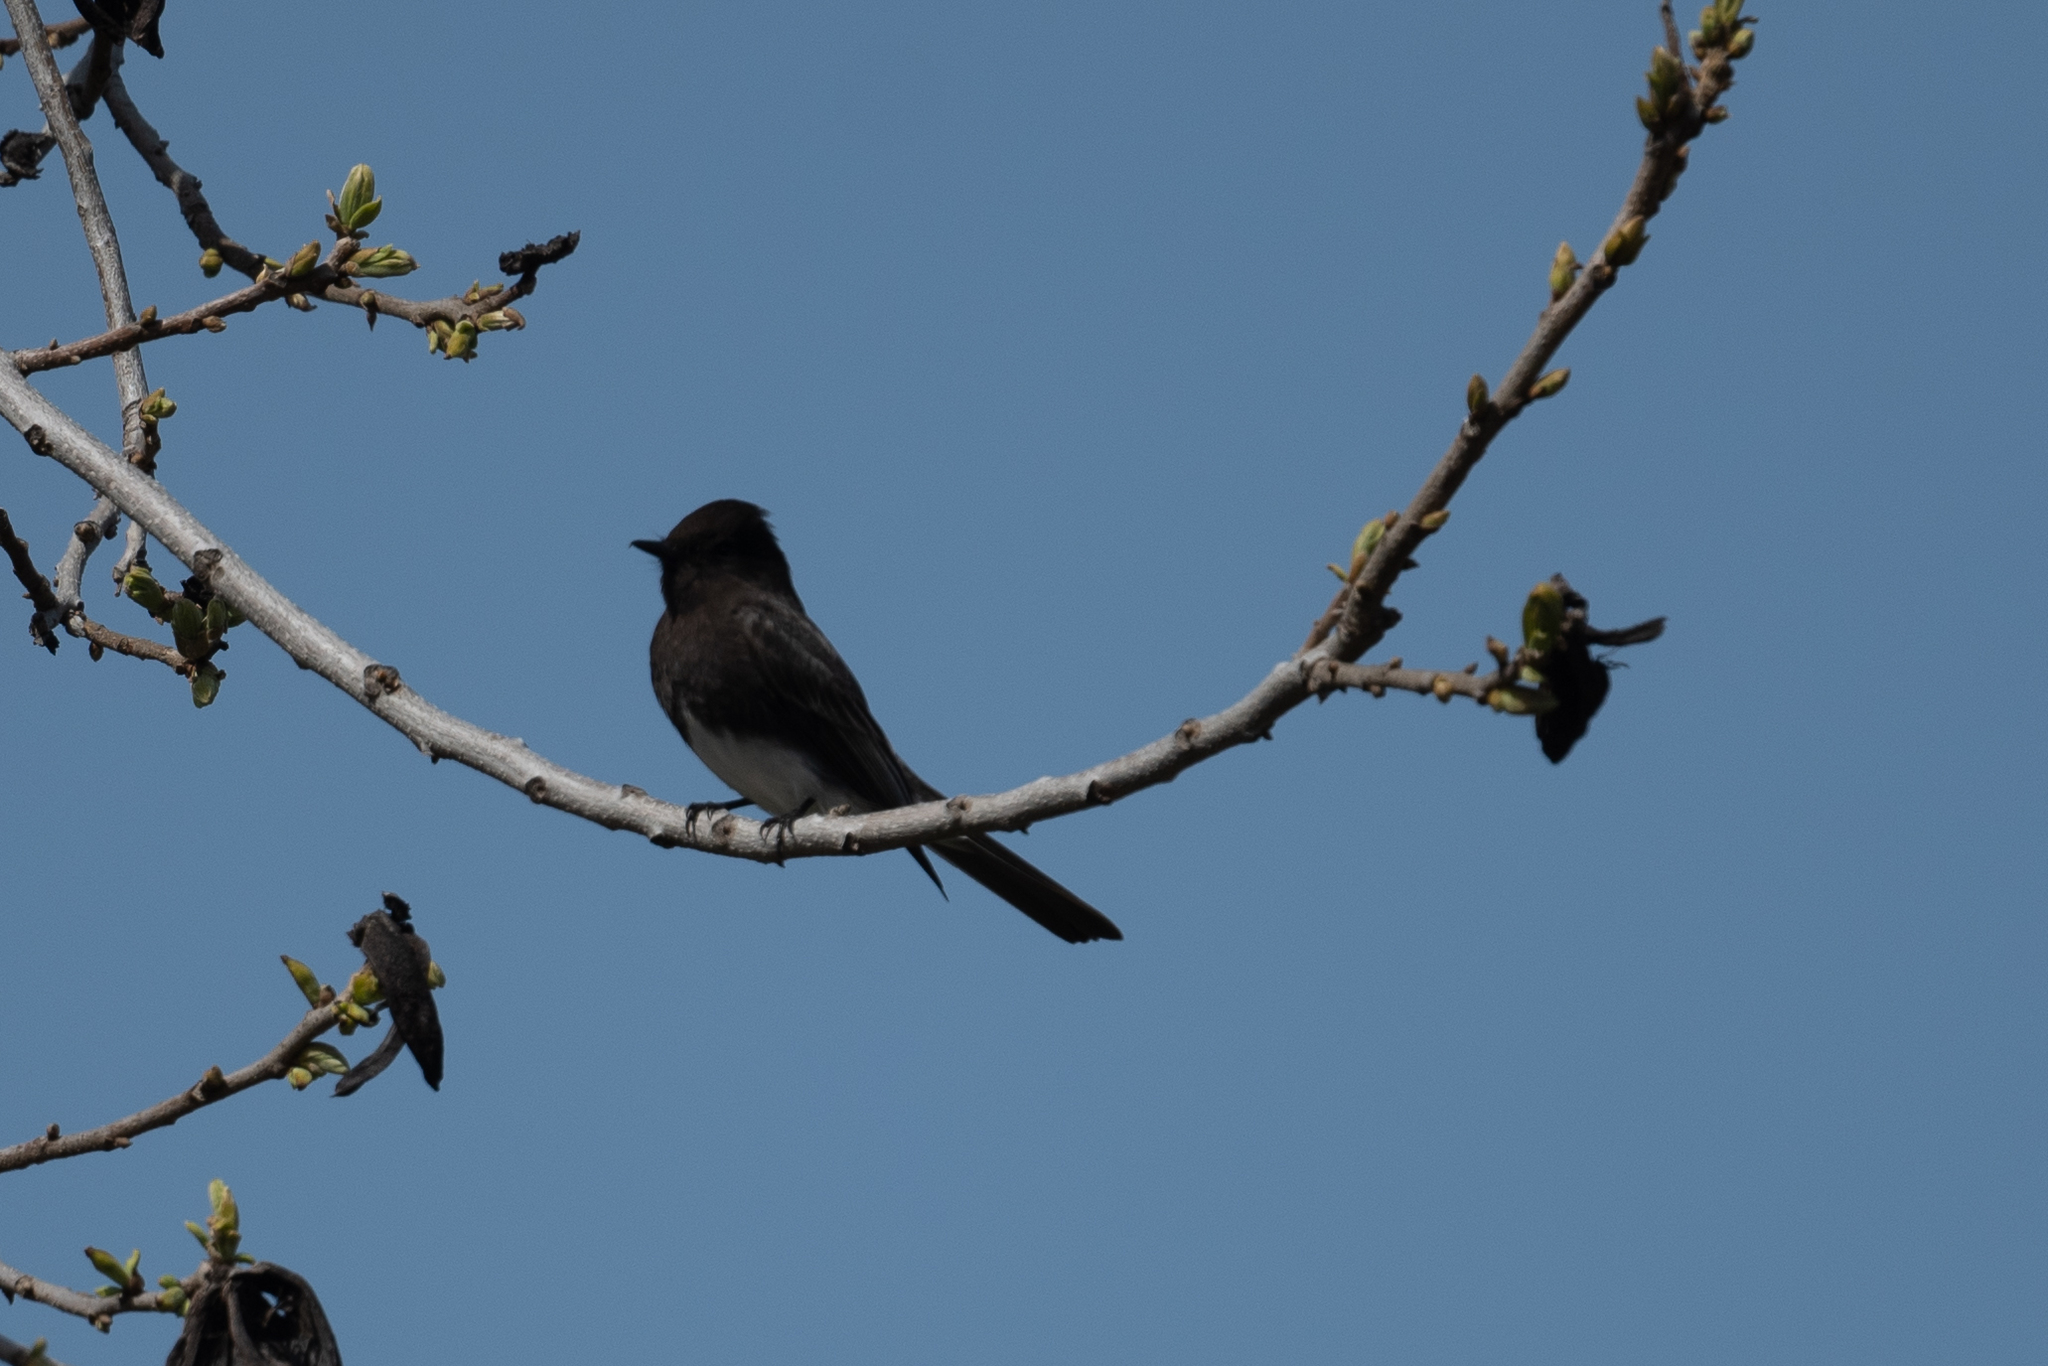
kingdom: Animalia
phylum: Chordata
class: Aves
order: Passeriformes
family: Tyrannidae
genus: Sayornis
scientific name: Sayornis nigricans
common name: Black phoebe
